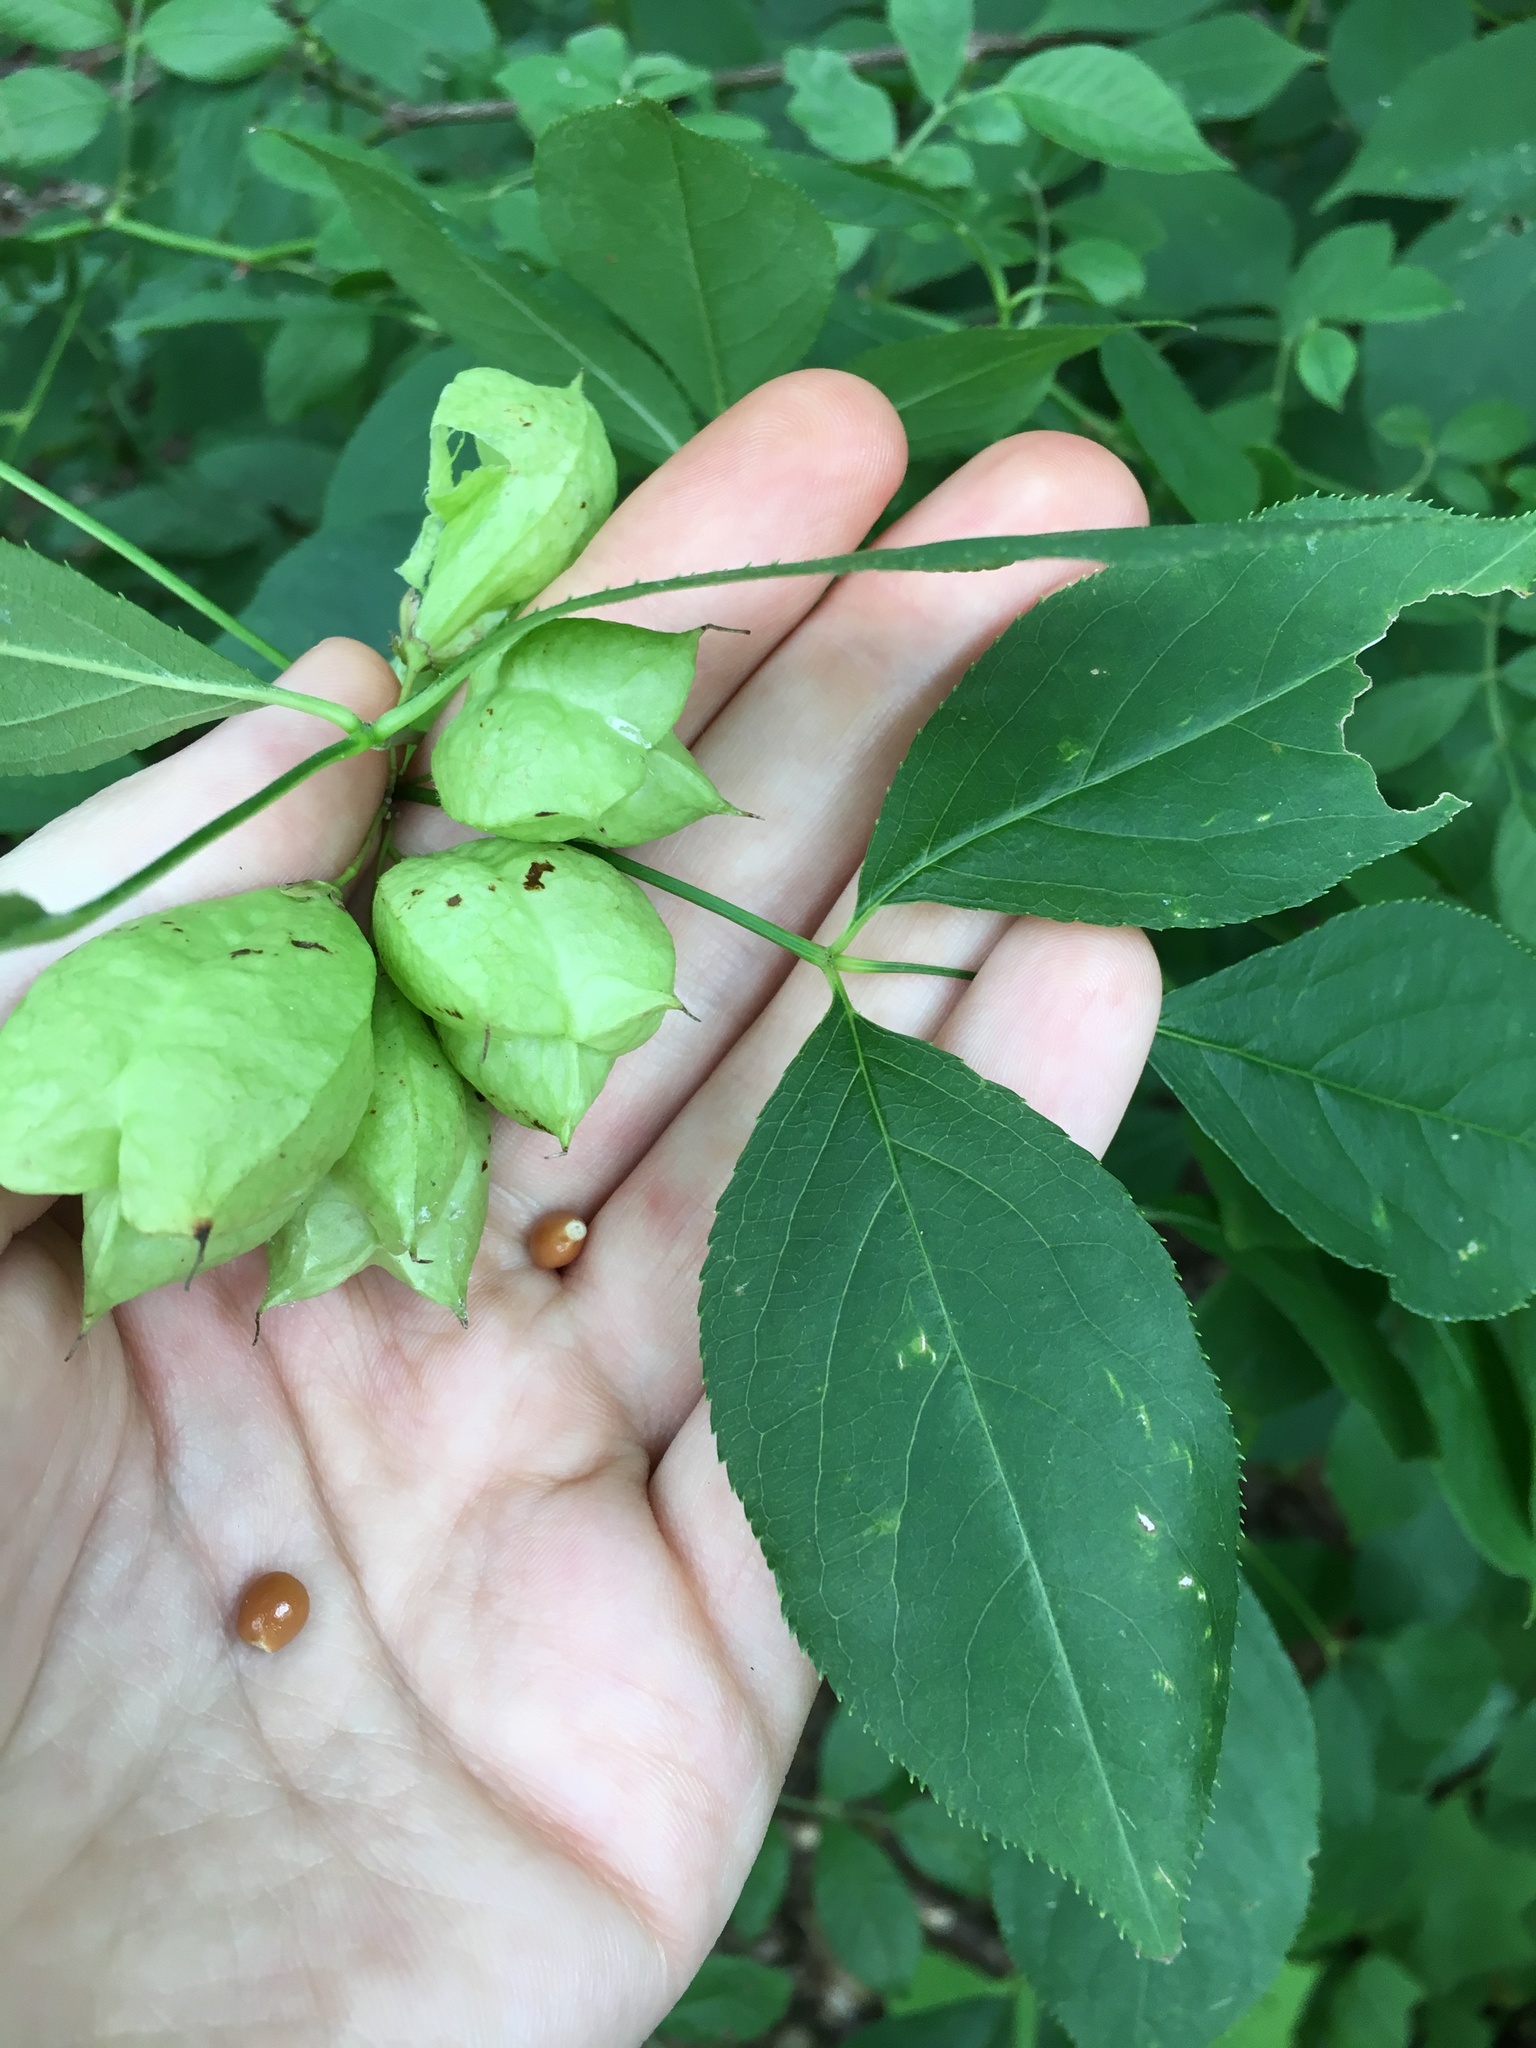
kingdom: Plantae
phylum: Tracheophyta
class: Magnoliopsida
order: Crossosomatales
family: Staphyleaceae
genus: Staphylea
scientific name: Staphylea trifolia
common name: American bladdernut
